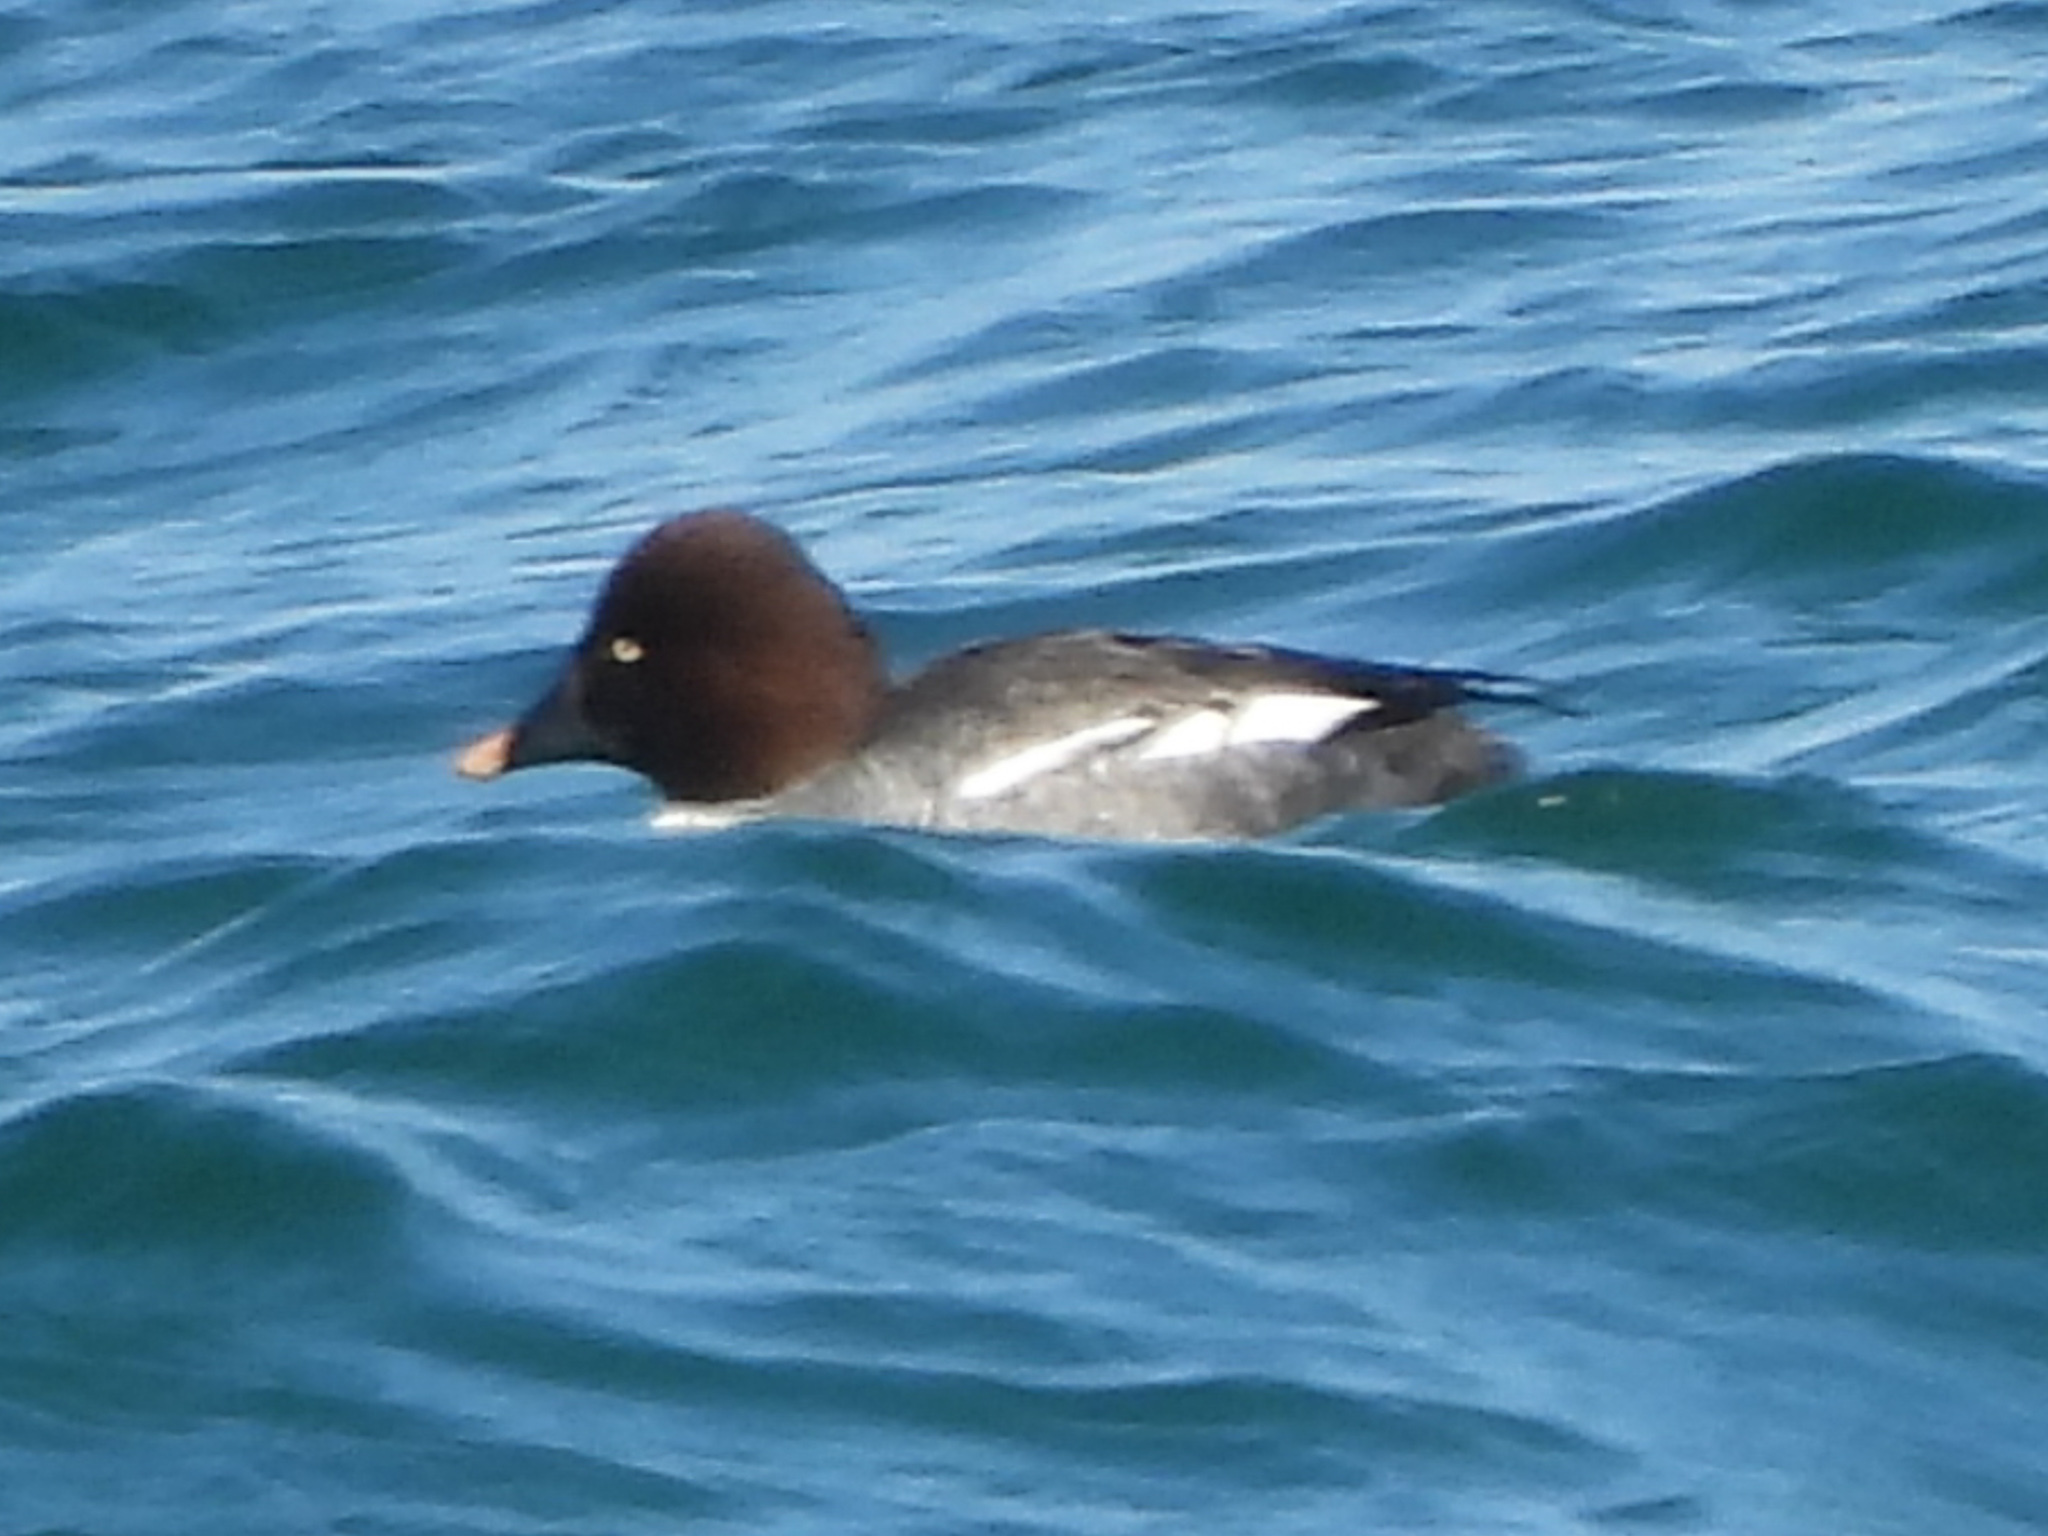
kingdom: Animalia
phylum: Chordata
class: Aves
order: Anseriformes
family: Anatidae
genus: Bucephala
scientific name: Bucephala clangula
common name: Common goldeneye
